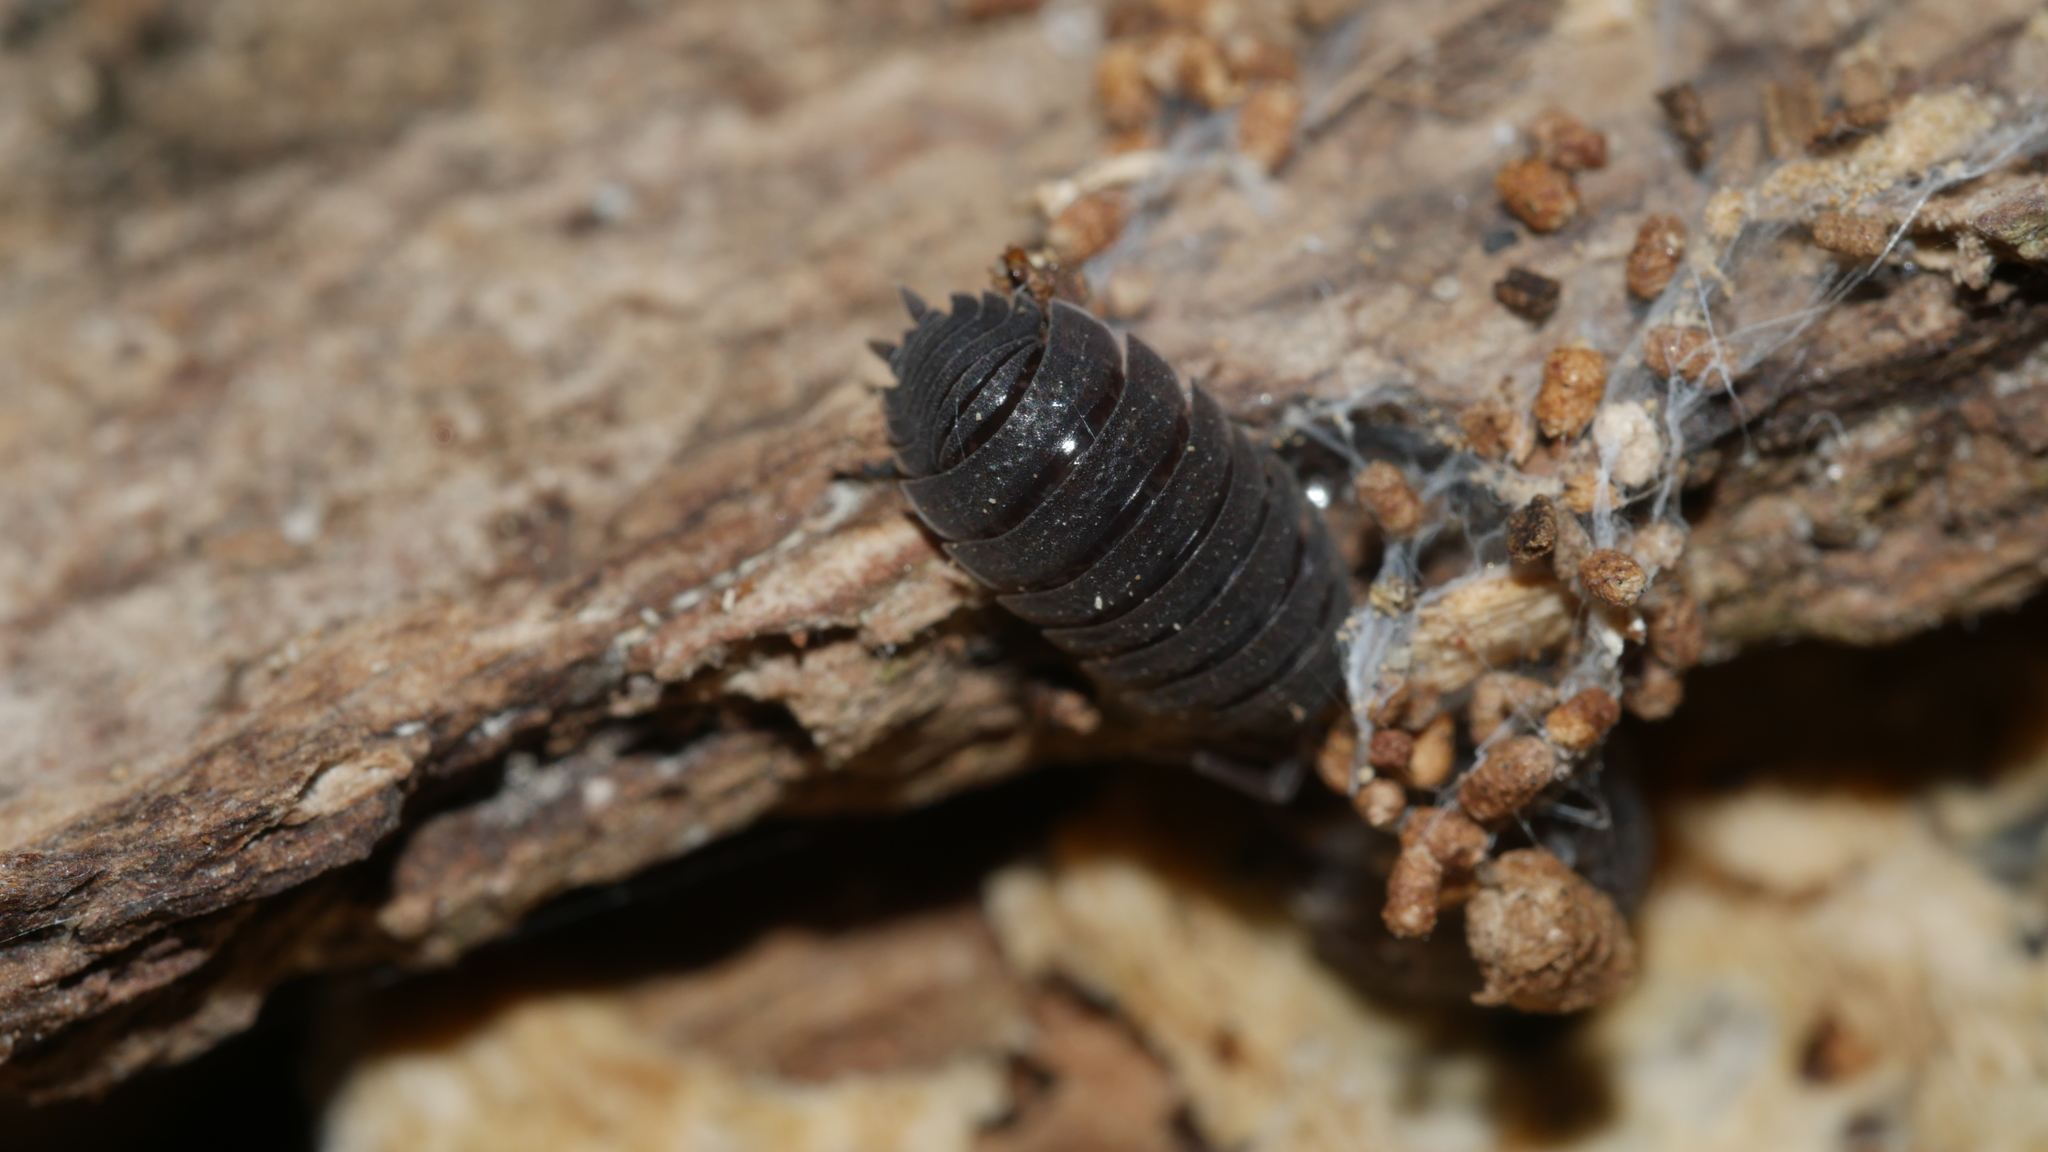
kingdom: Animalia
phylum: Arthropoda
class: Malacostraca
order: Isopoda
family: Porcellionidae
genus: Porcellio
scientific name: Porcellio scaber
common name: Common rough woodlouse
